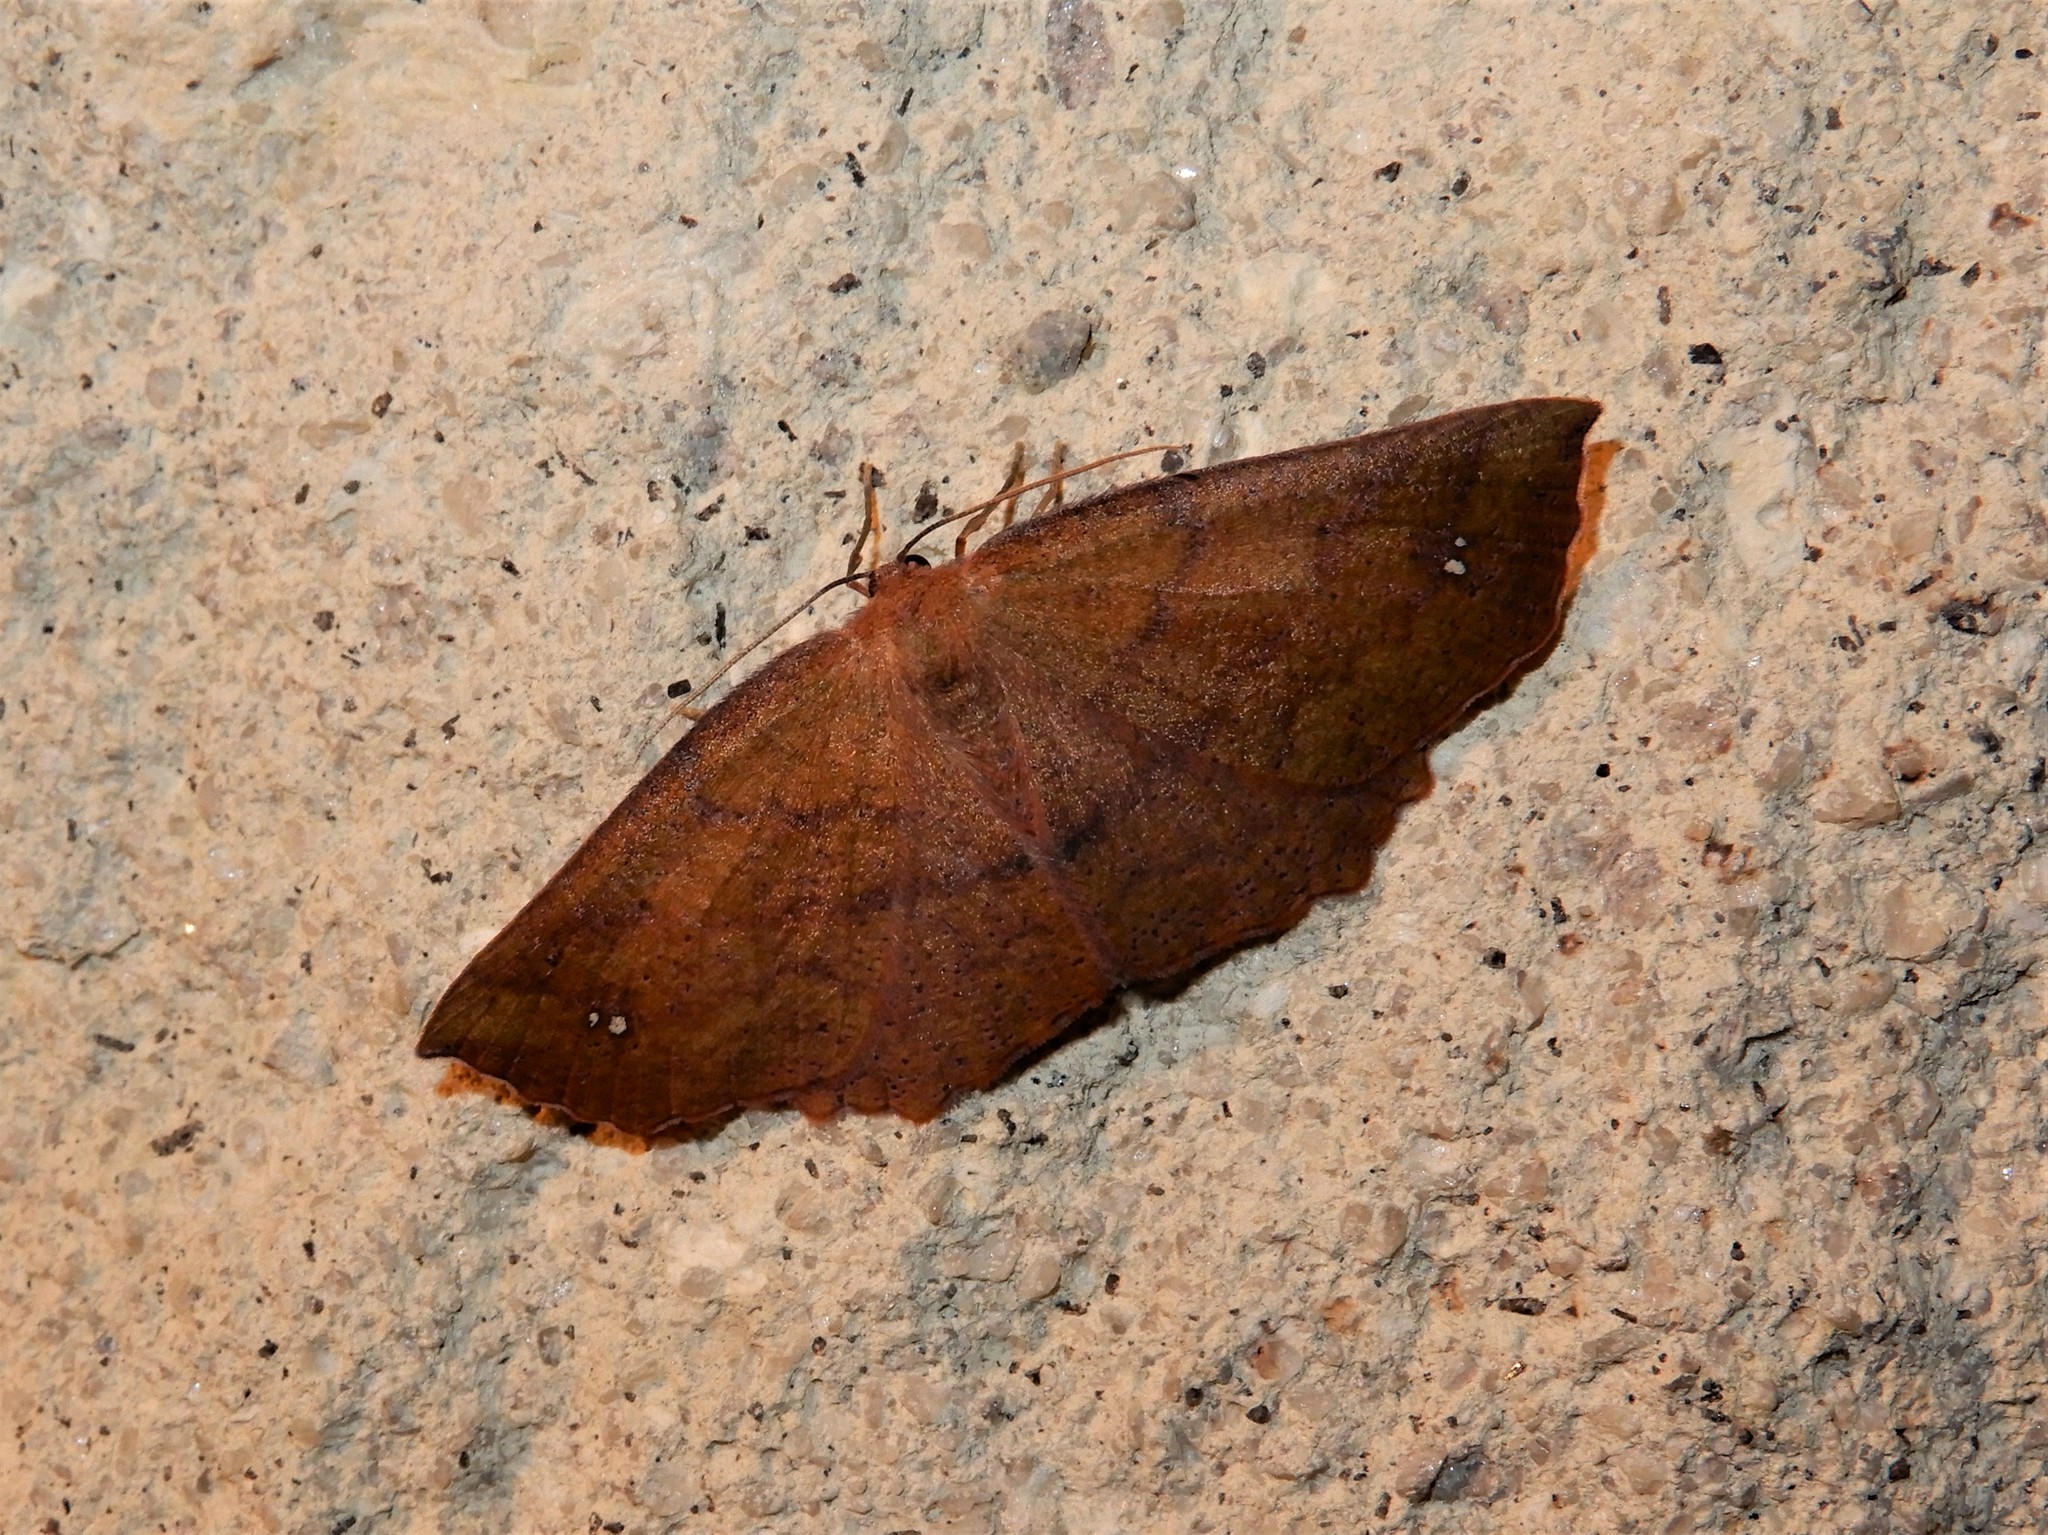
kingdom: Animalia
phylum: Arthropoda
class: Insecta
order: Lepidoptera
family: Geometridae
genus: Xyridacma
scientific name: Xyridacma ustaria
